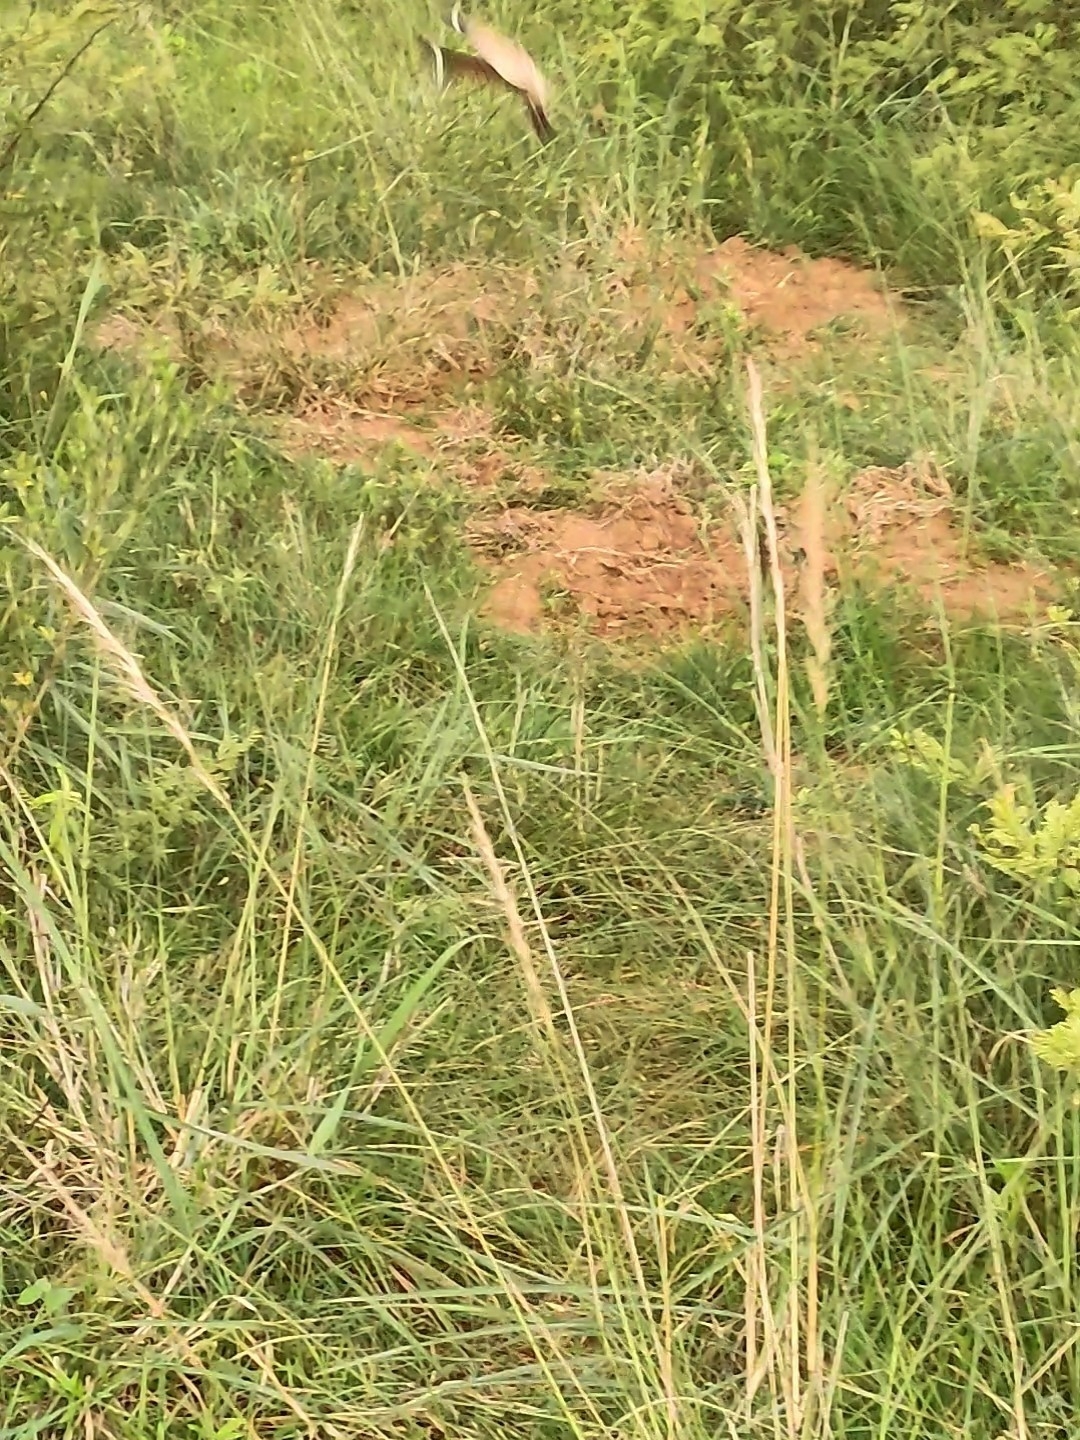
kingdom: Animalia
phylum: Chordata
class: Aves
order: Caprimulgiformes
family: Caprimulgidae
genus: Caprimulgus
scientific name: Caprimulgus asiaticus
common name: Indian nightjar
